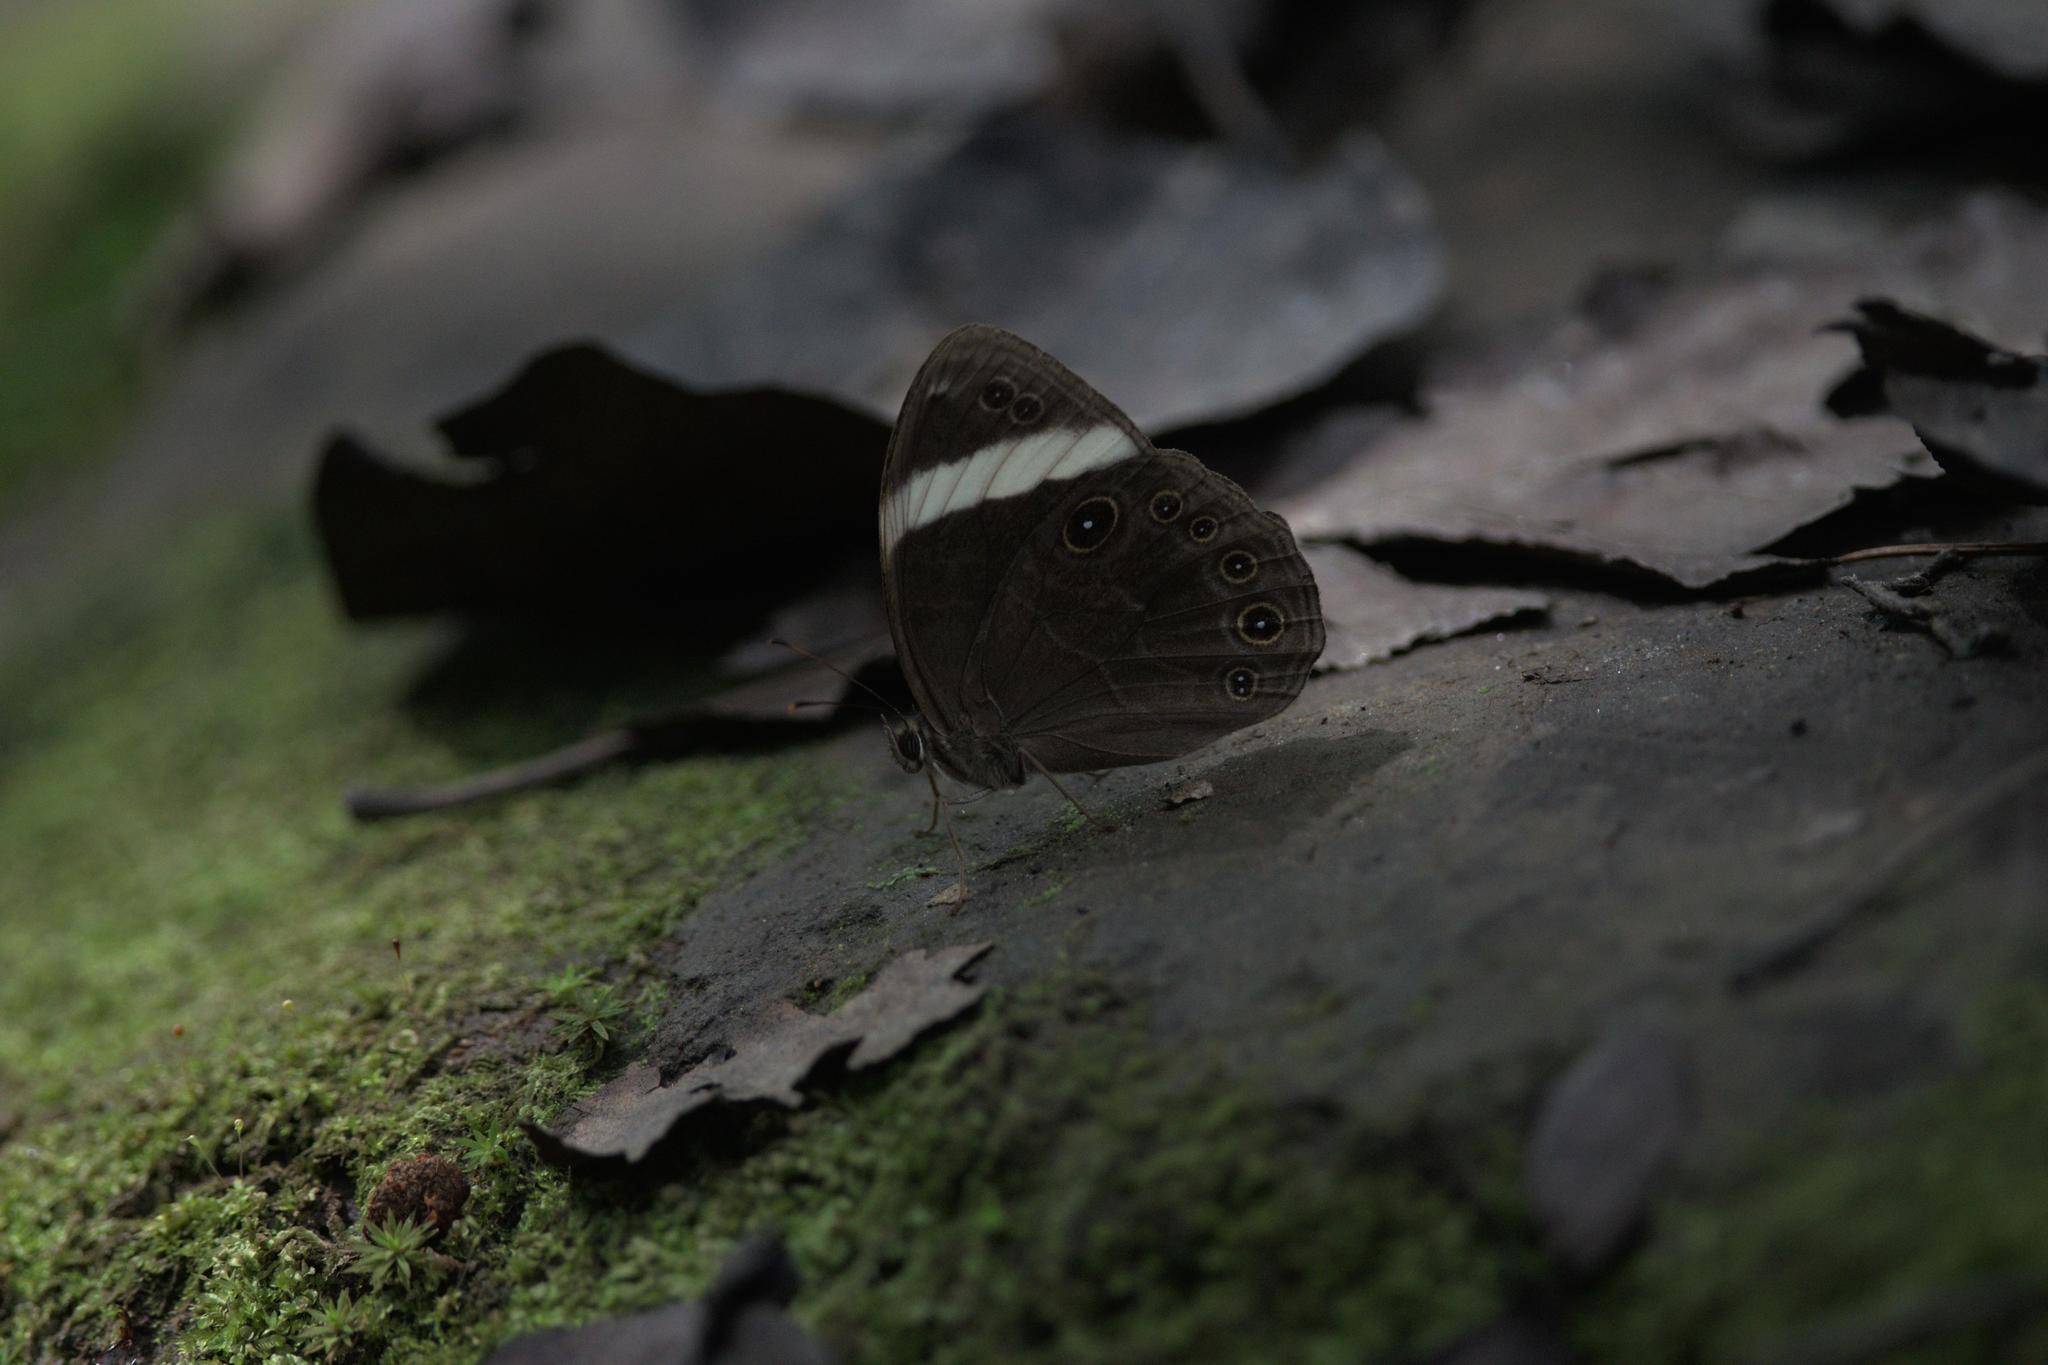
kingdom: Animalia
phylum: Arthropoda
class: Insecta
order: Lepidoptera
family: Nymphalidae
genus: Lethe
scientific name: Lethe verma
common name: Straight-banded treebrown
